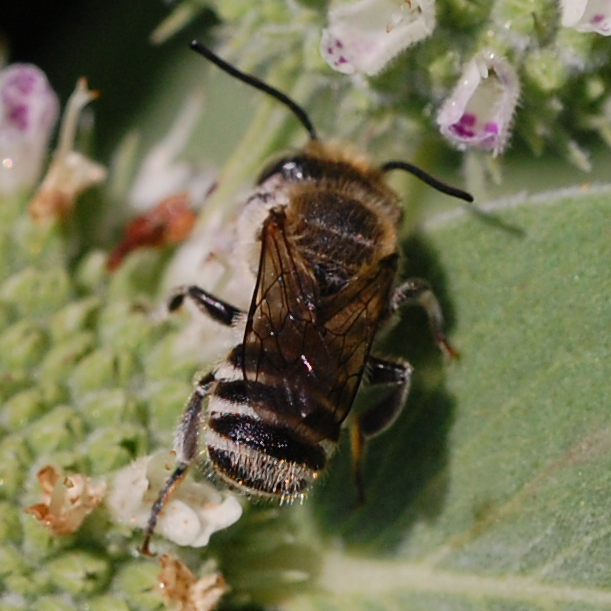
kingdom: Animalia
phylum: Arthropoda
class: Insecta
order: Hymenoptera
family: Megachilidae
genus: Megachile
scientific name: Megachile rotundata
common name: Alfalfa leafcutting bee
